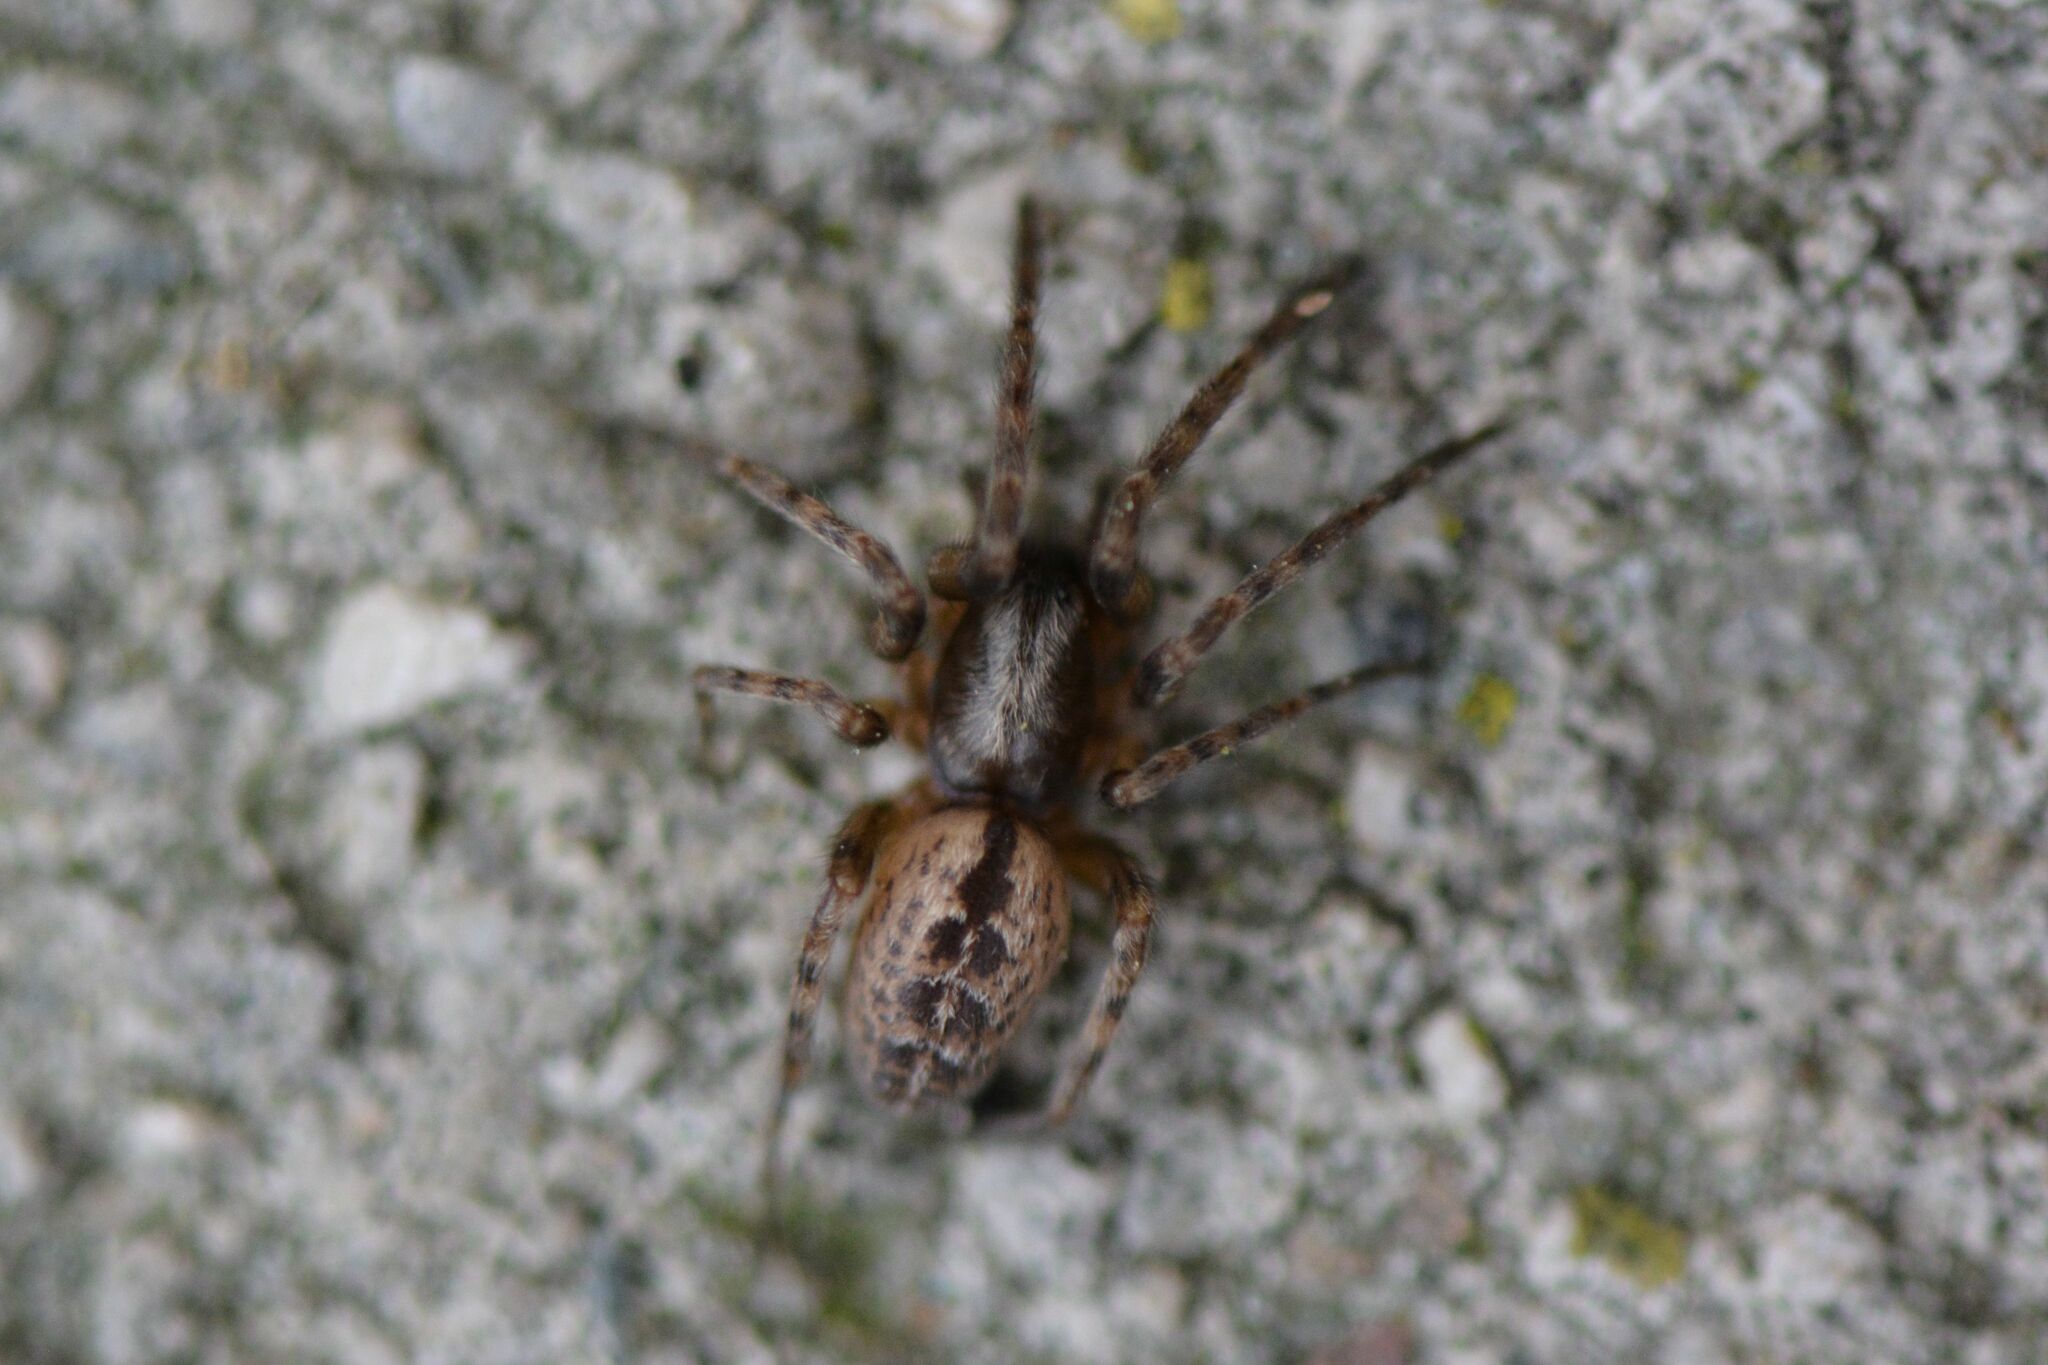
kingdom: Animalia
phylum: Arthropoda
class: Arachnida
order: Araneae
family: Segestriidae
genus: Segestria
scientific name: Segestria bavarica
